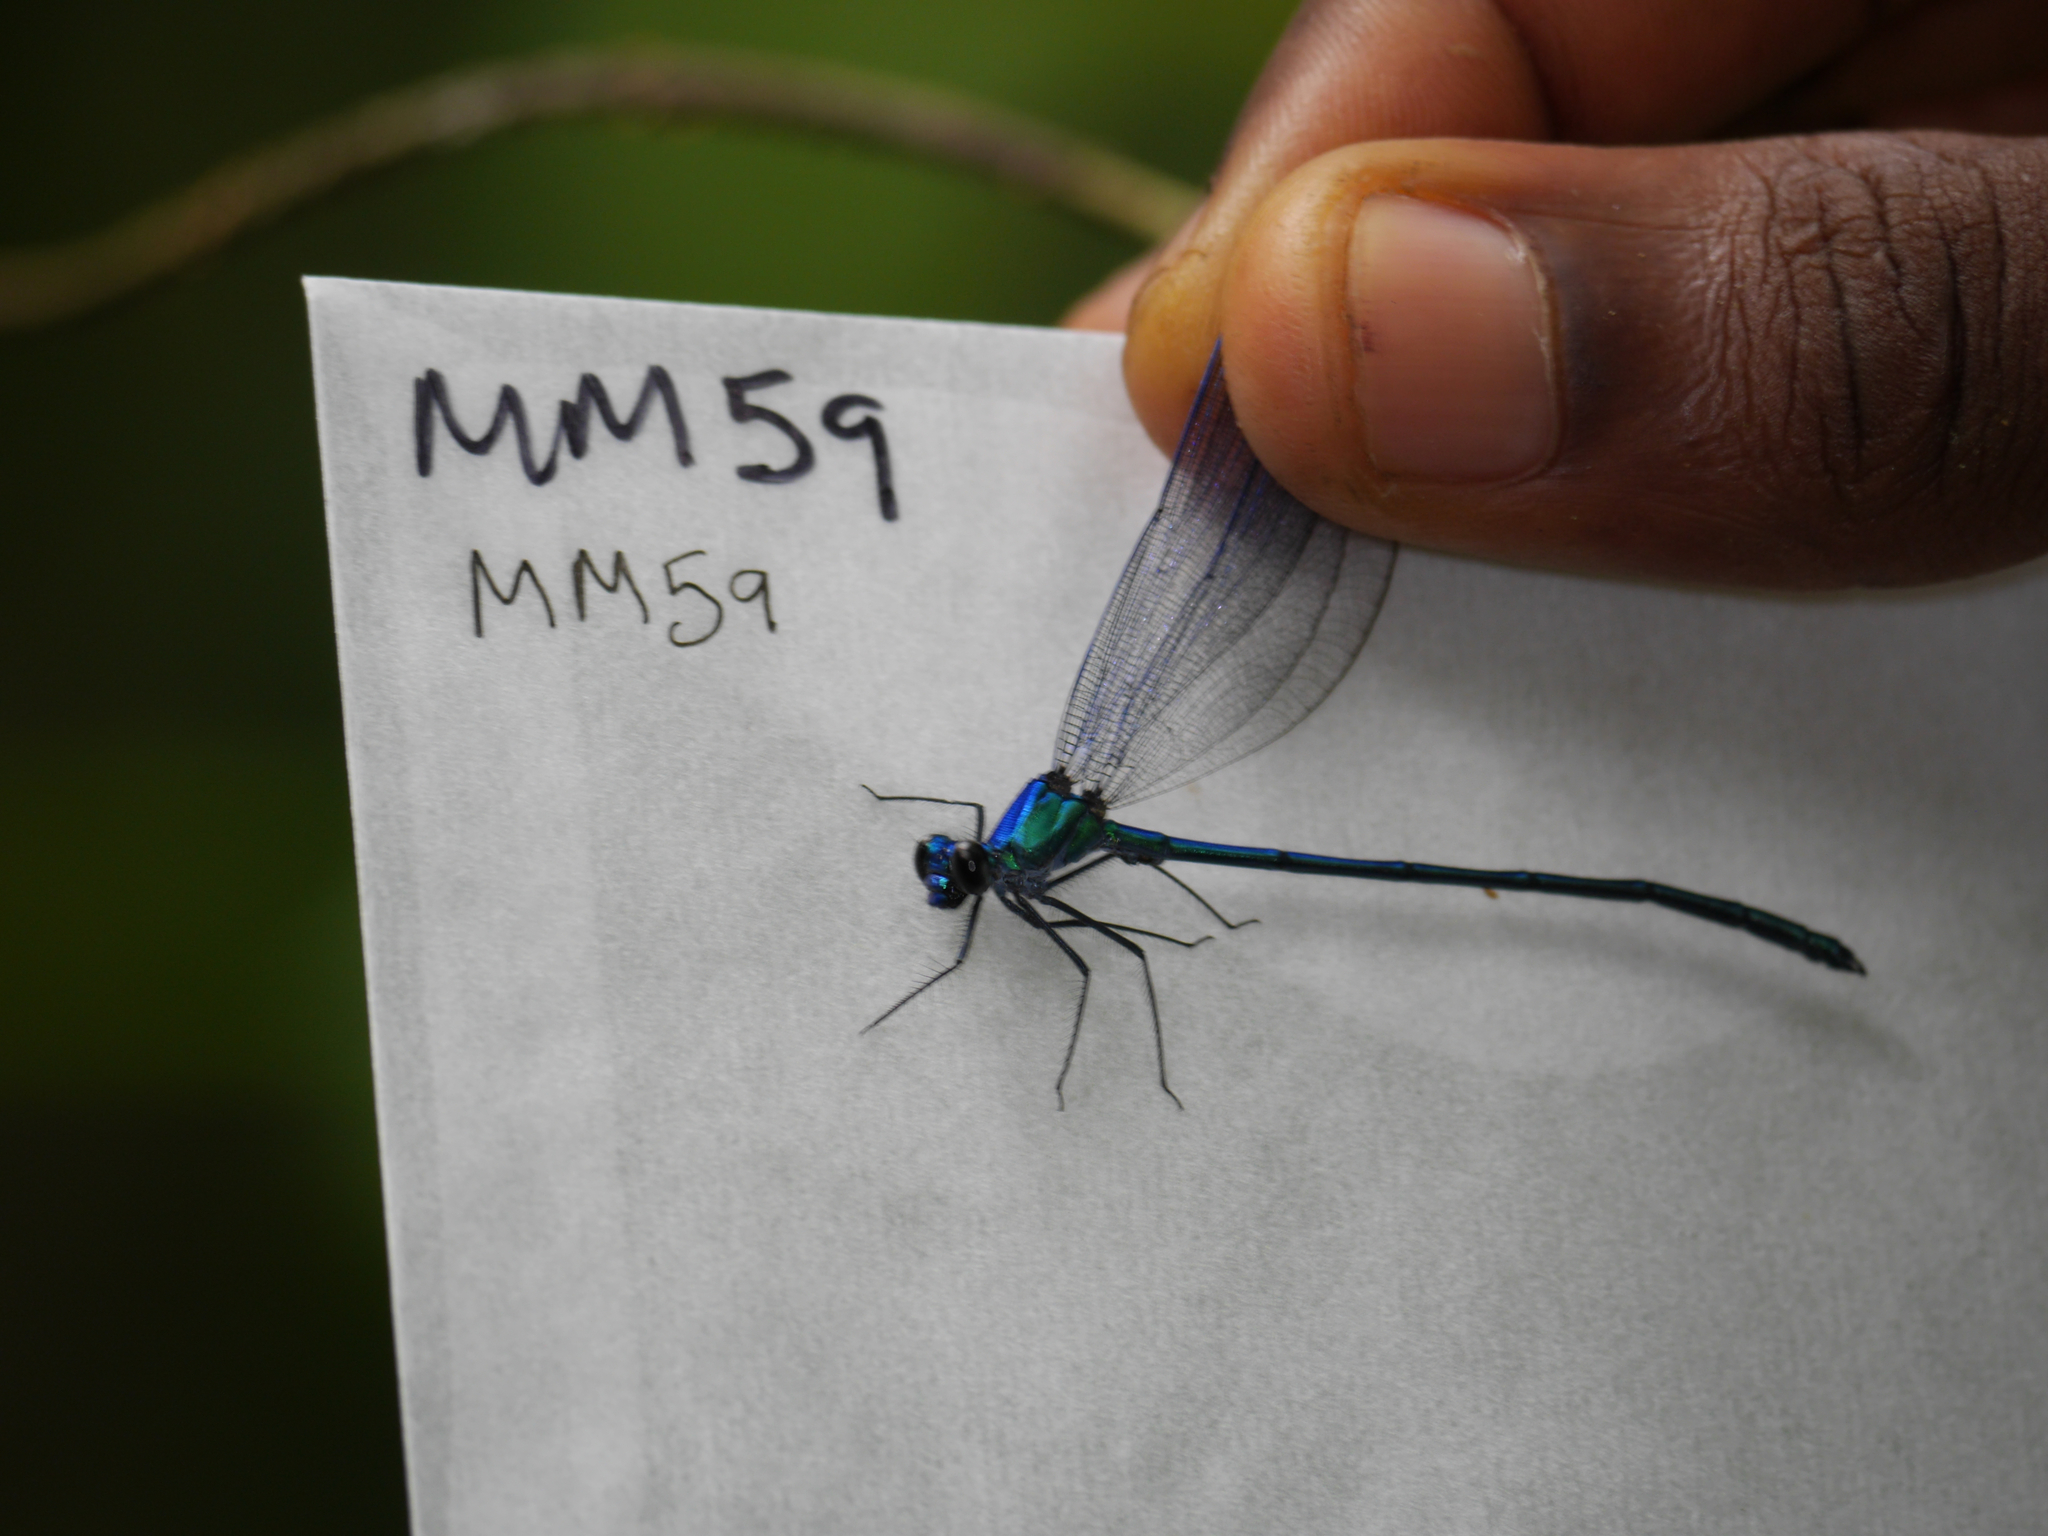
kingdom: Animalia
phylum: Arthropoda
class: Insecta
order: Odonata
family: Calopterygidae
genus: Umma
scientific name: Umma cincta
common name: Broad-winged sparklewing
